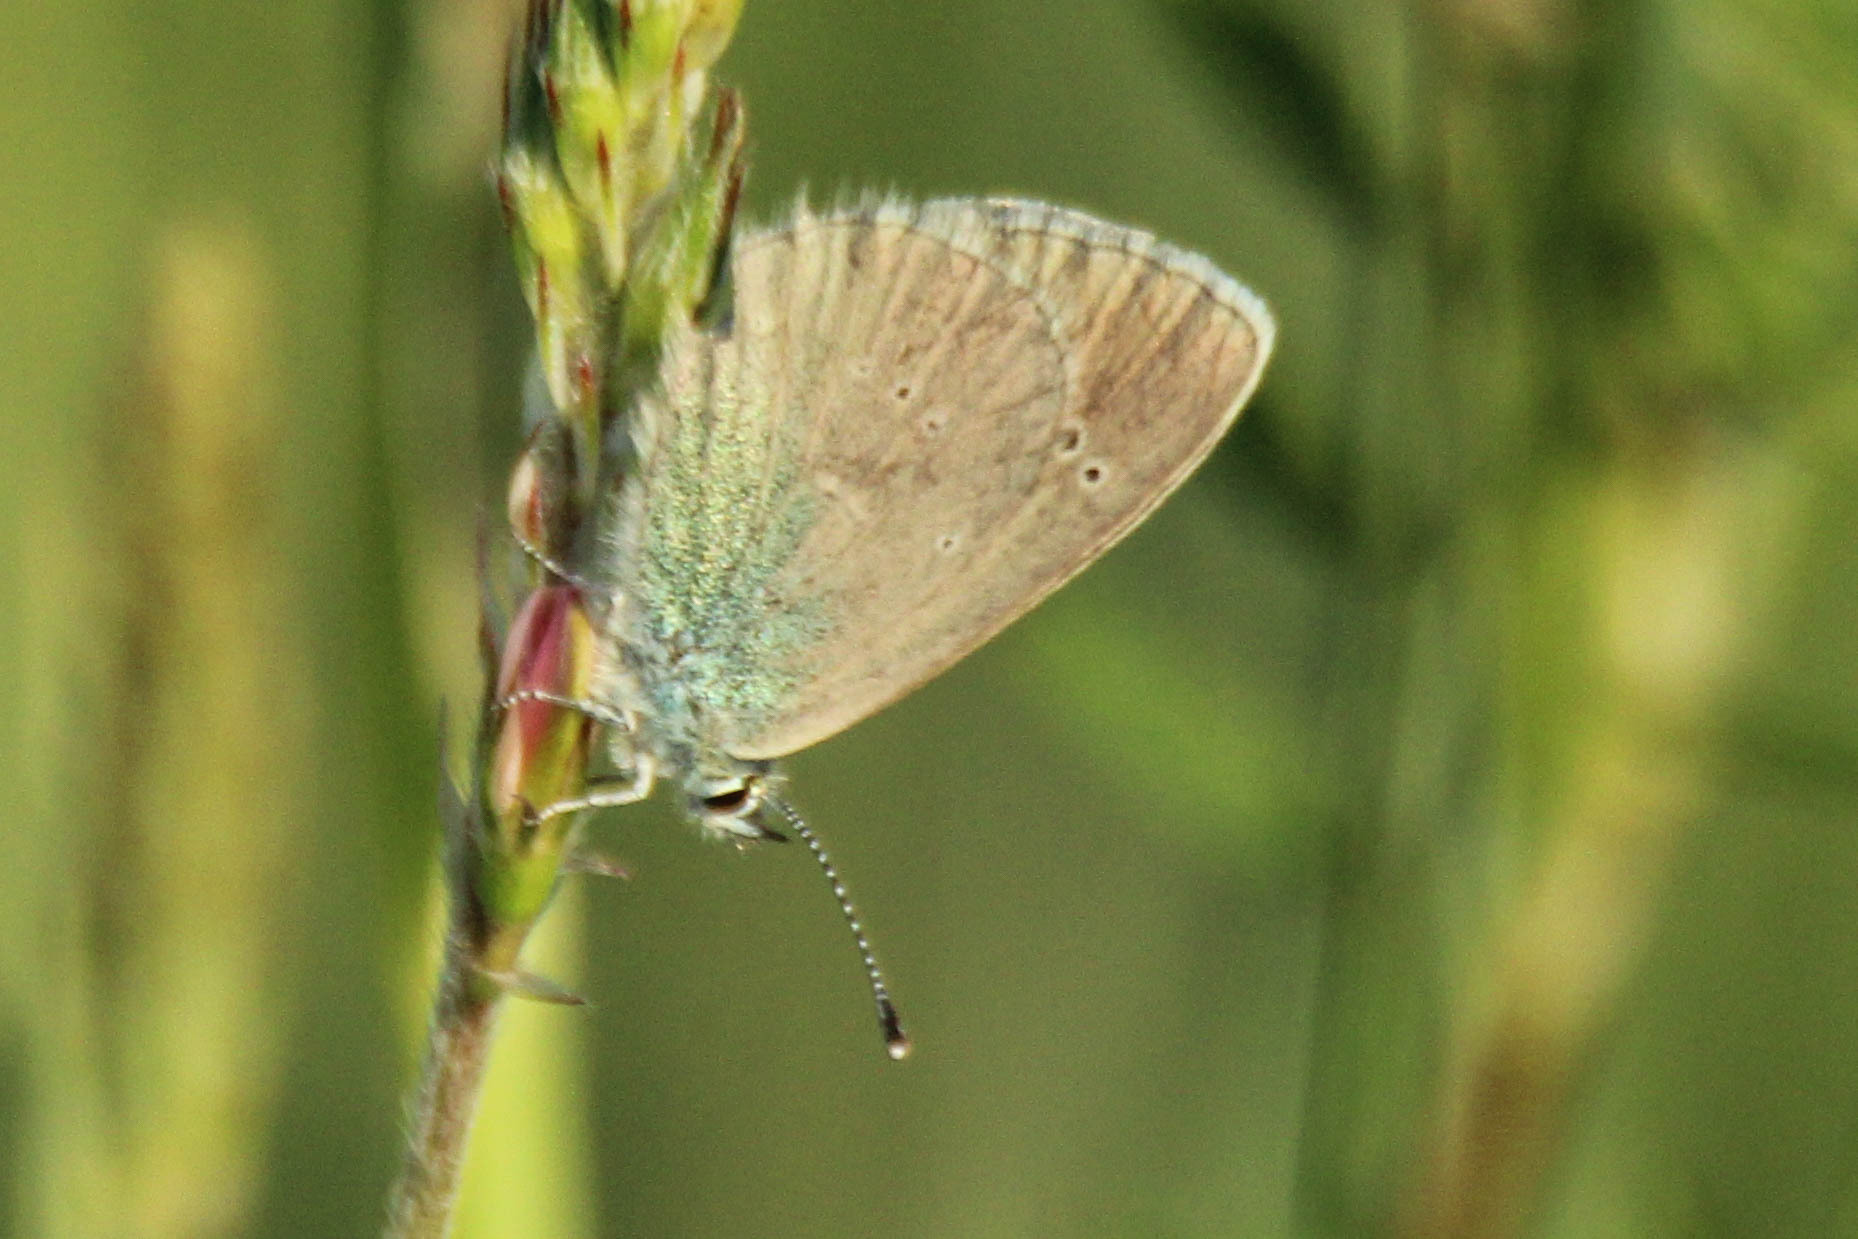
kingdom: Animalia
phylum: Arthropoda
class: Insecta
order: Lepidoptera
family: Lycaenidae
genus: Glaucopsyche
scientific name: Glaucopsyche alexis
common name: Green-underside blue
